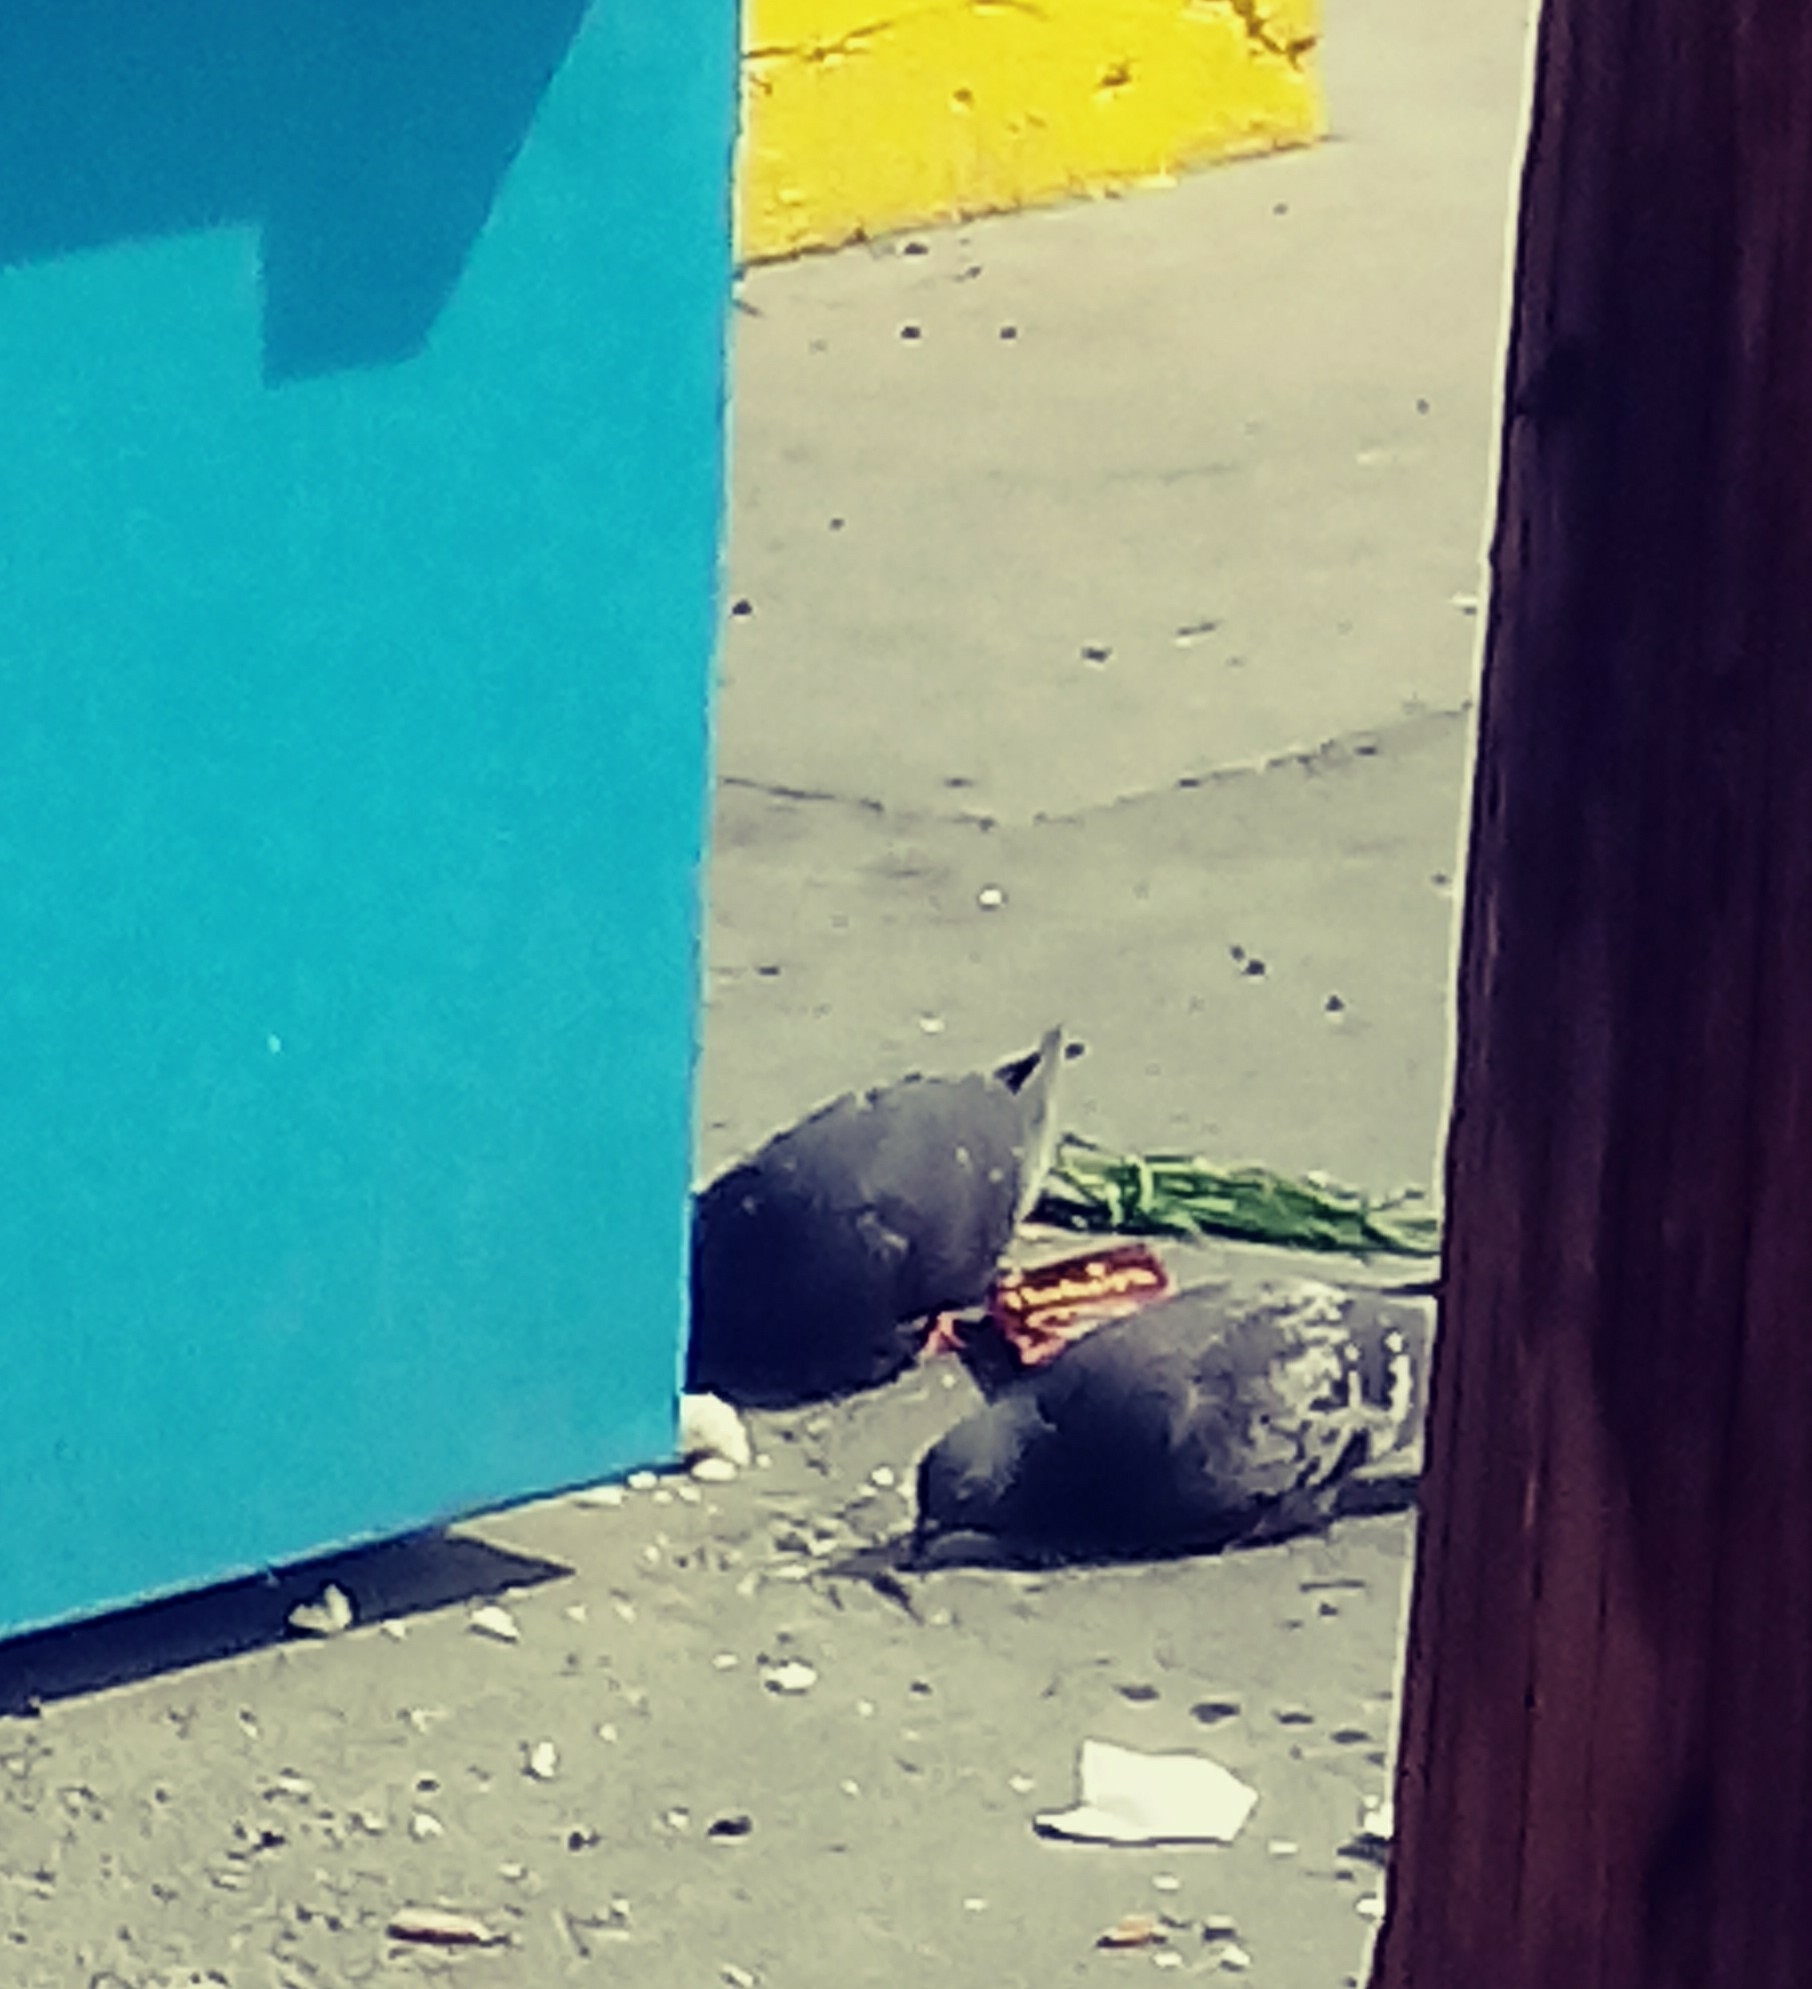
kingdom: Animalia
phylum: Chordata
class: Aves
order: Columbiformes
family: Columbidae
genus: Columba
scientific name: Columba livia
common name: Rock pigeon
